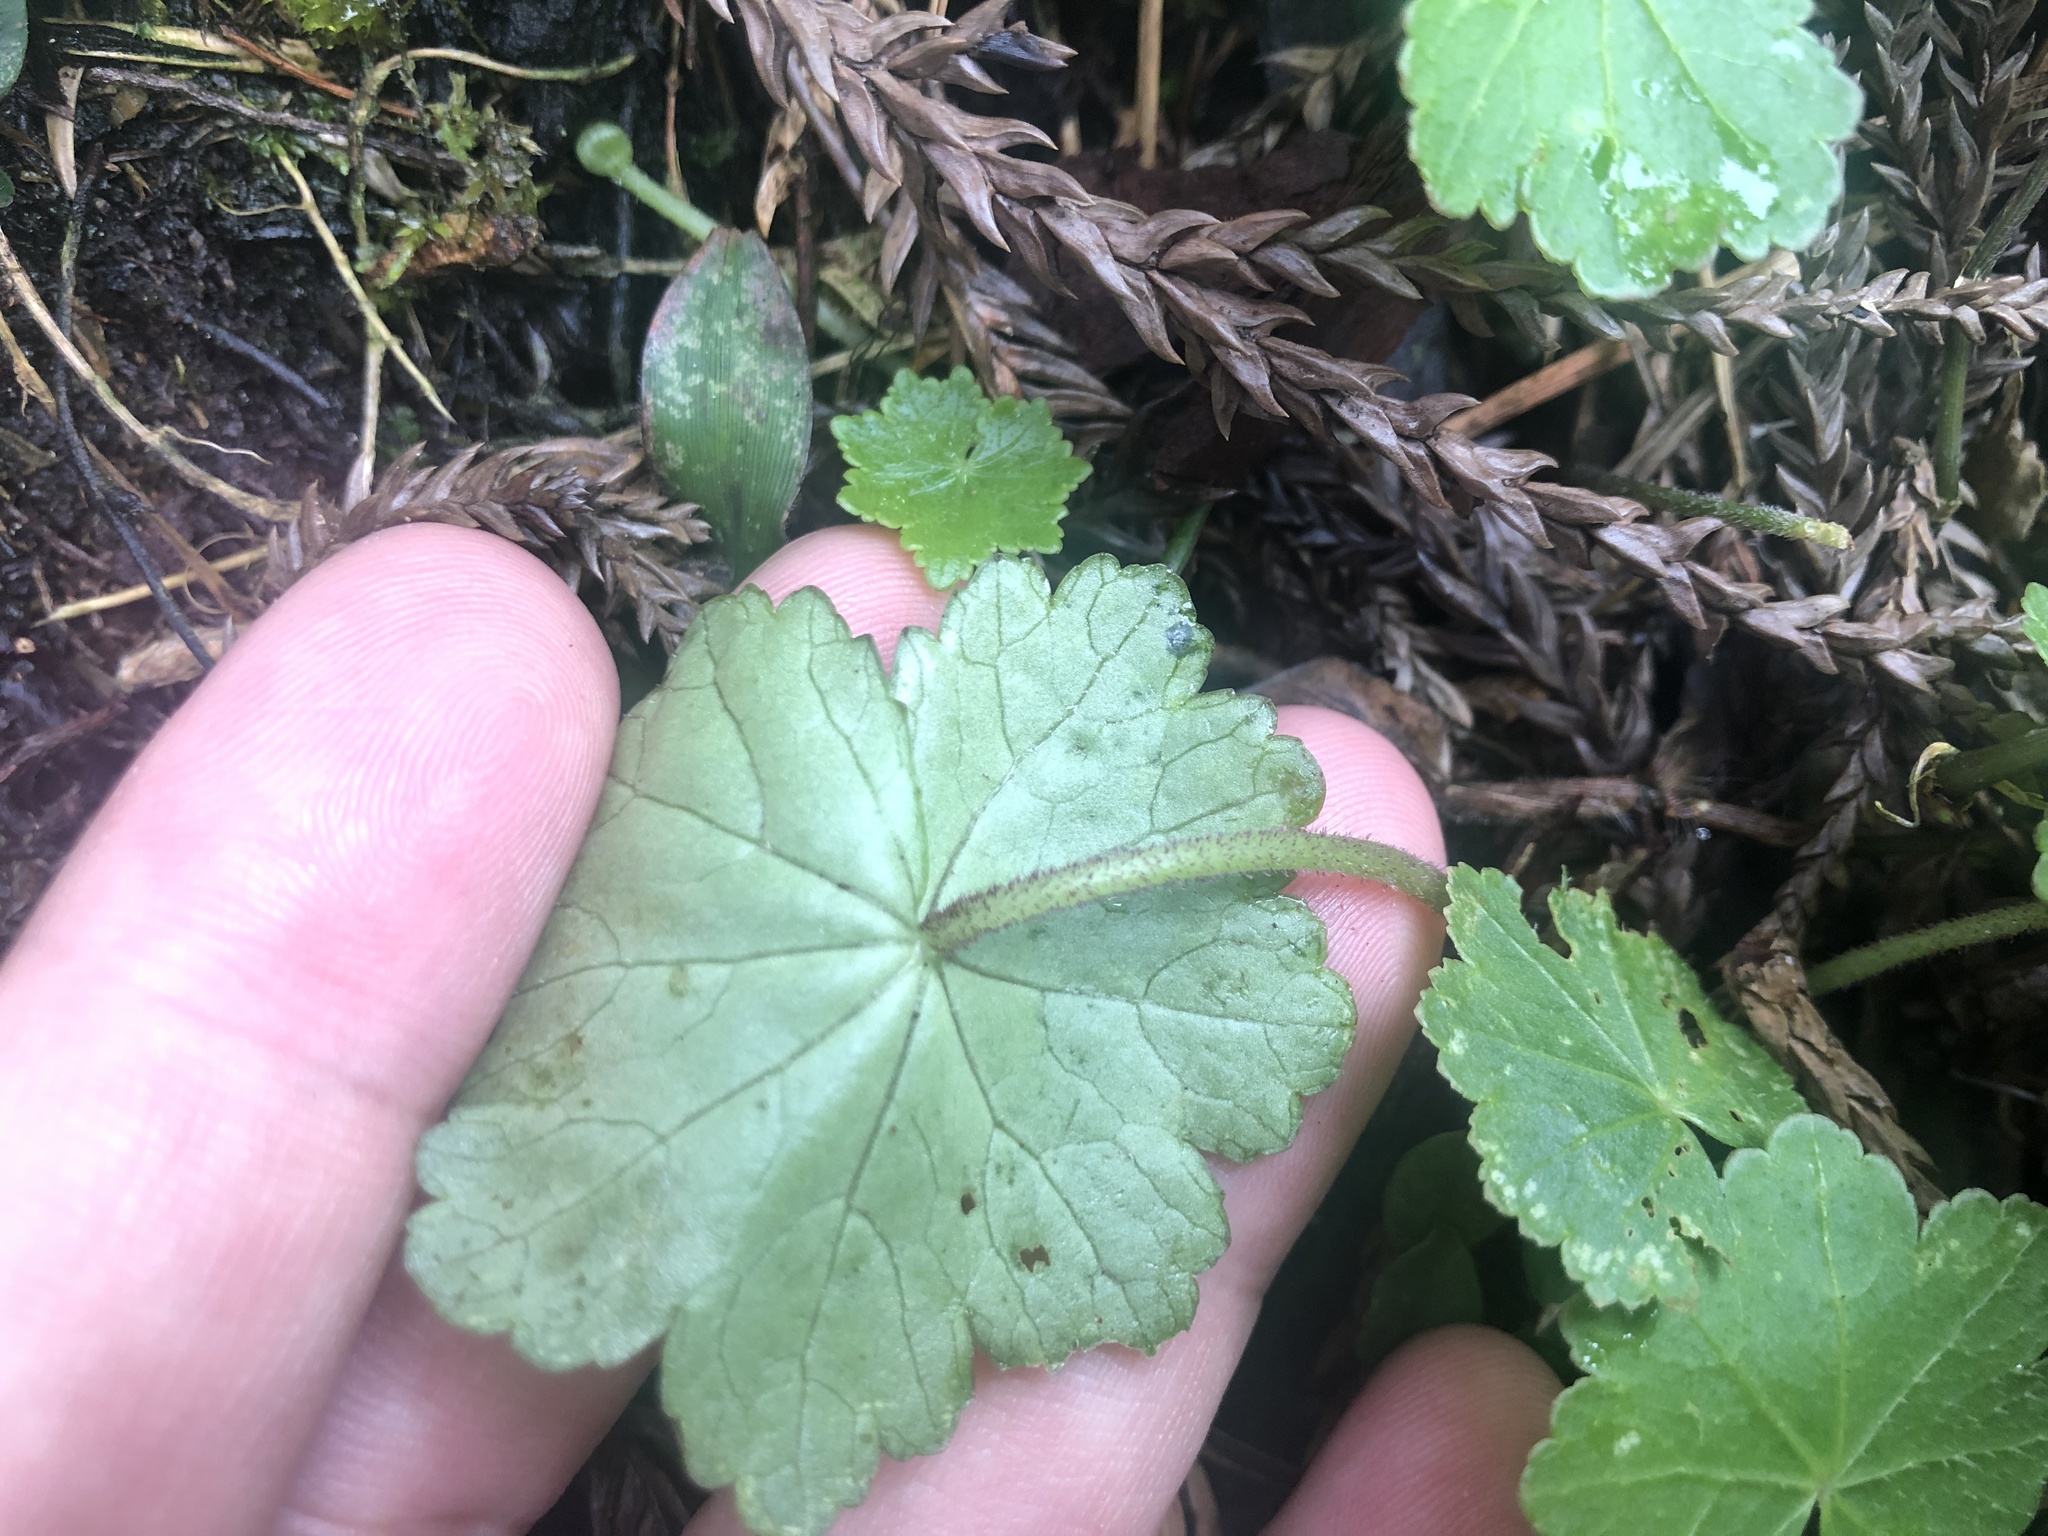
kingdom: Plantae
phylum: Tracheophyta
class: Magnoliopsida
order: Apiales
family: Araliaceae
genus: Hydrocotyle
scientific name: Hydrocotyle nepalensis
